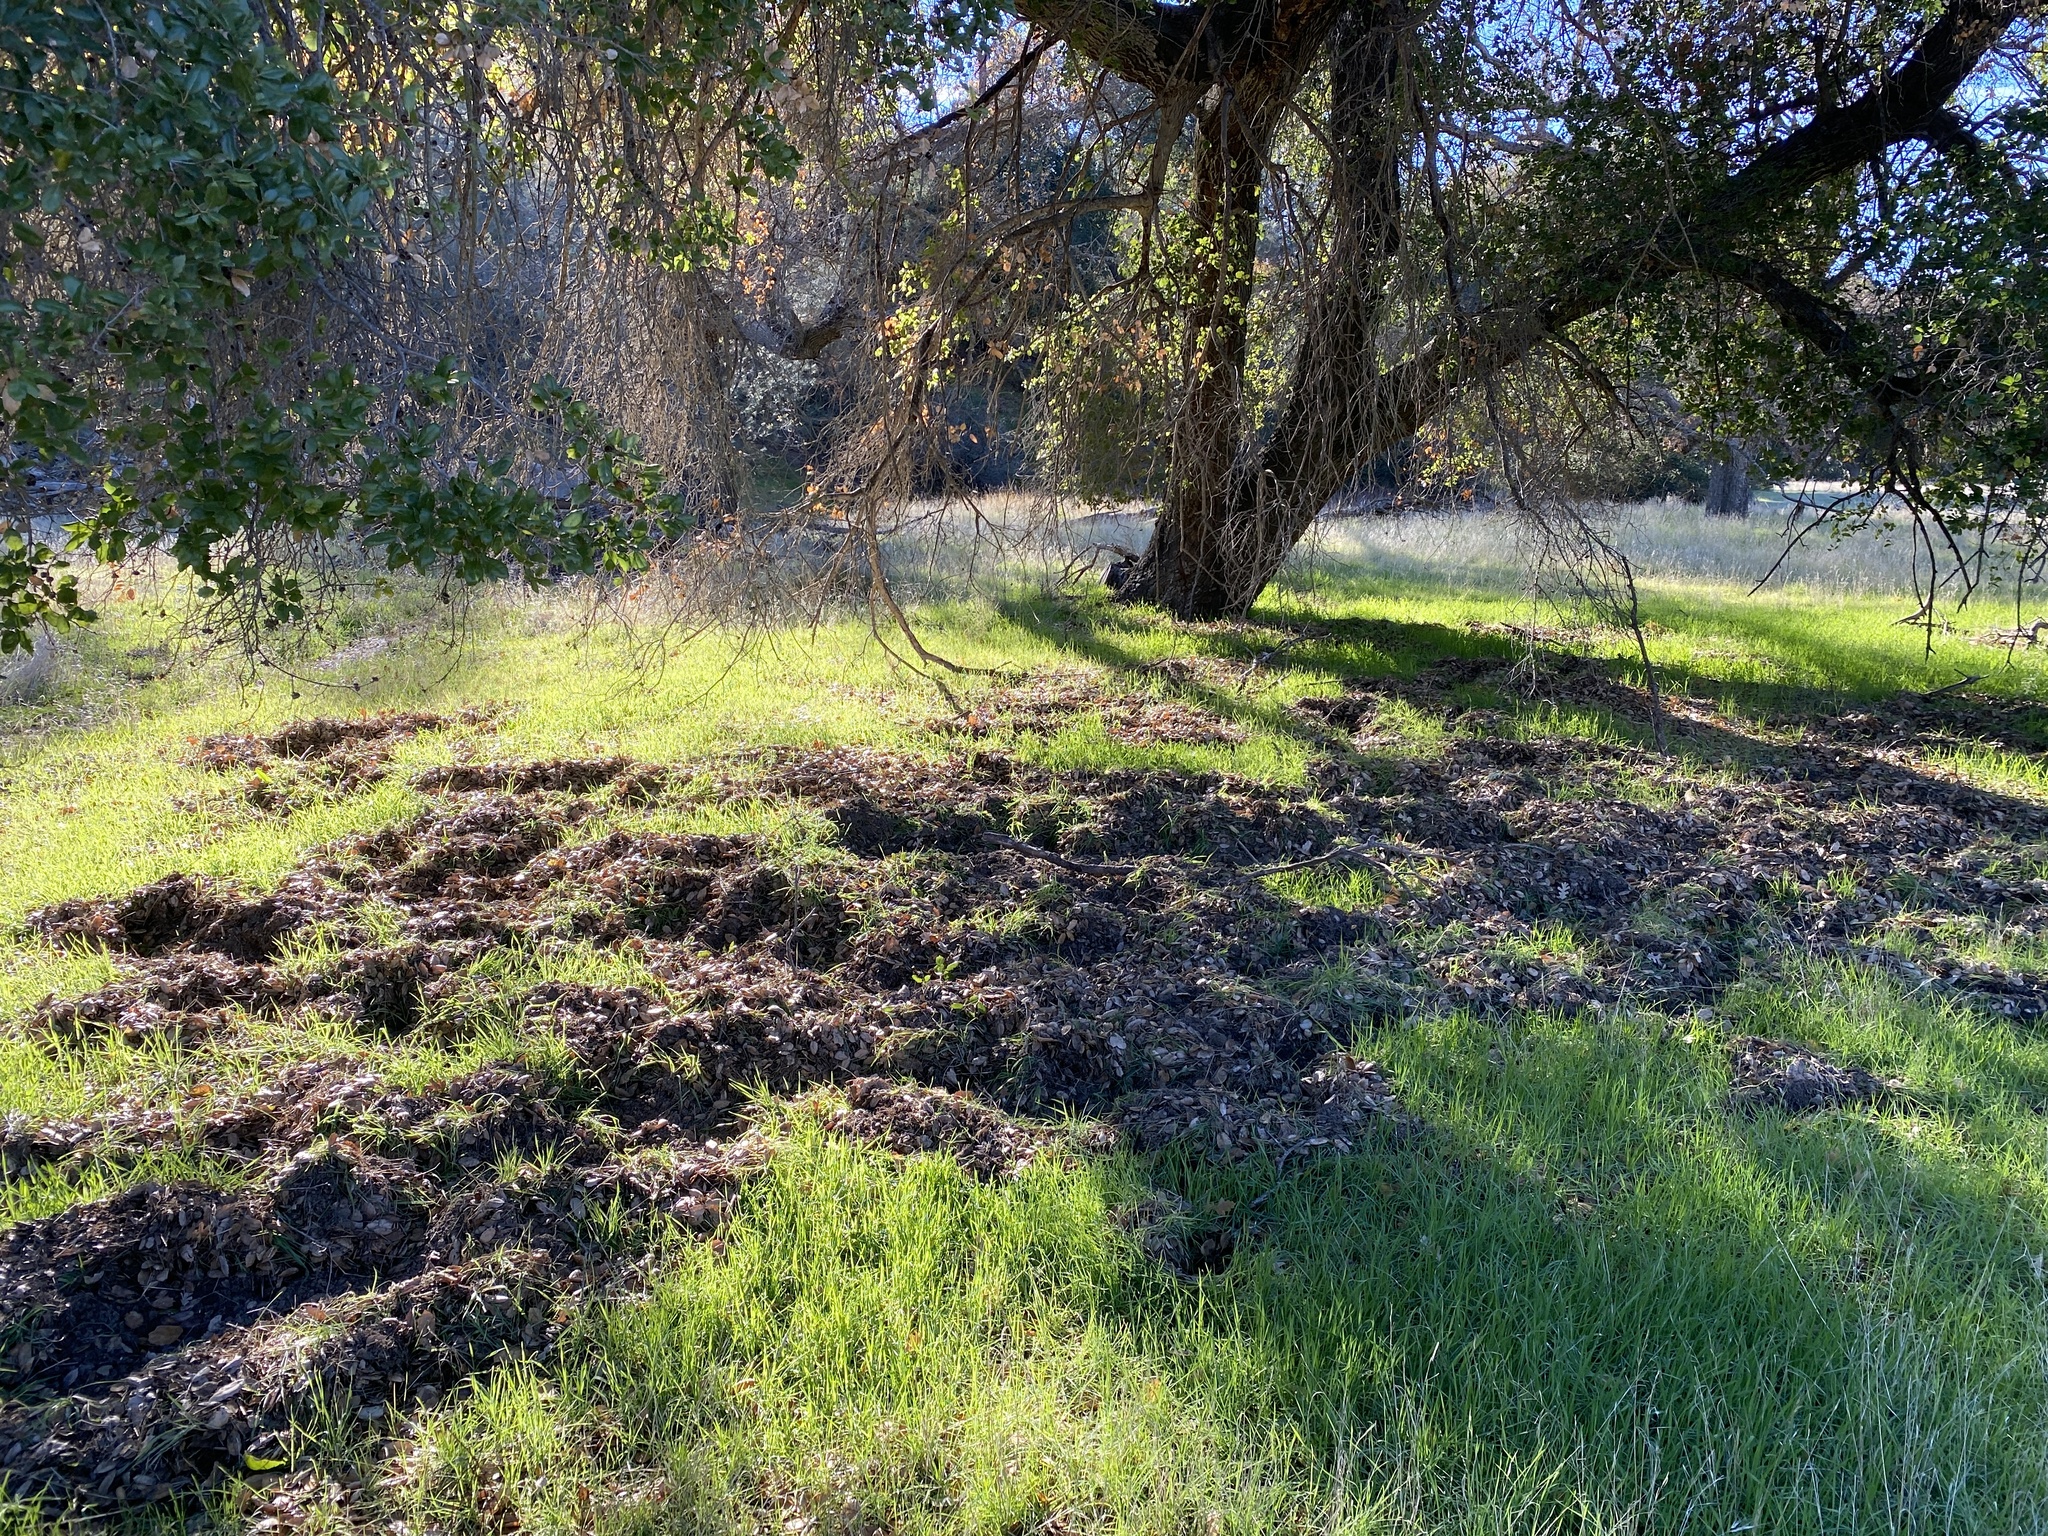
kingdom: Animalia
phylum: Chordata
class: Mammalia
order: Artiodactyla
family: Suidae
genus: Sus
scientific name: Sus scrofa
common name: Wild boar
